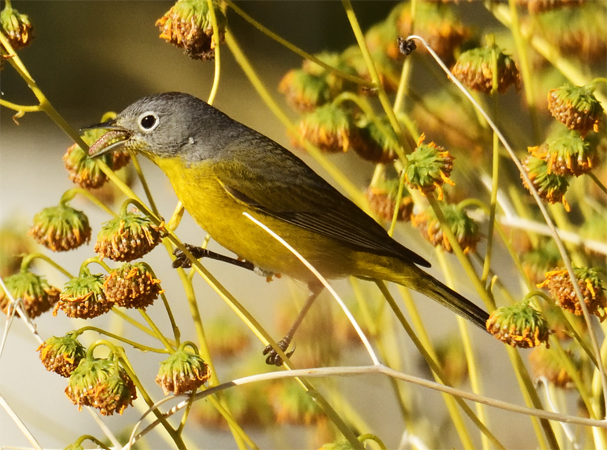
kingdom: Animalia
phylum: Chordata
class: Aves
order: Passeriformes
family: Parulidae
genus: Leiothlypis
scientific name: Leiothlypis ruficapilla
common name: Nashville warbler
